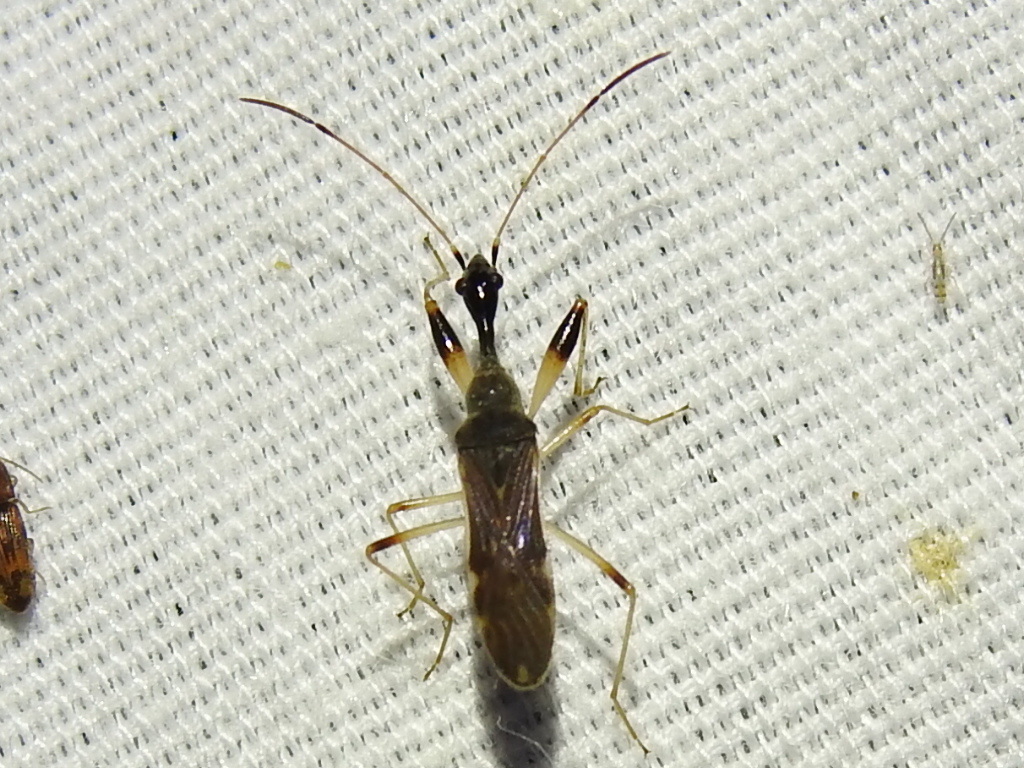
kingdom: Animalia
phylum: Arthropoda
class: Insecta
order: Hemiptera
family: Rhyparochromidae
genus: Myodocha
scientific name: Myodocha serripes
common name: Long-necked seed bug
